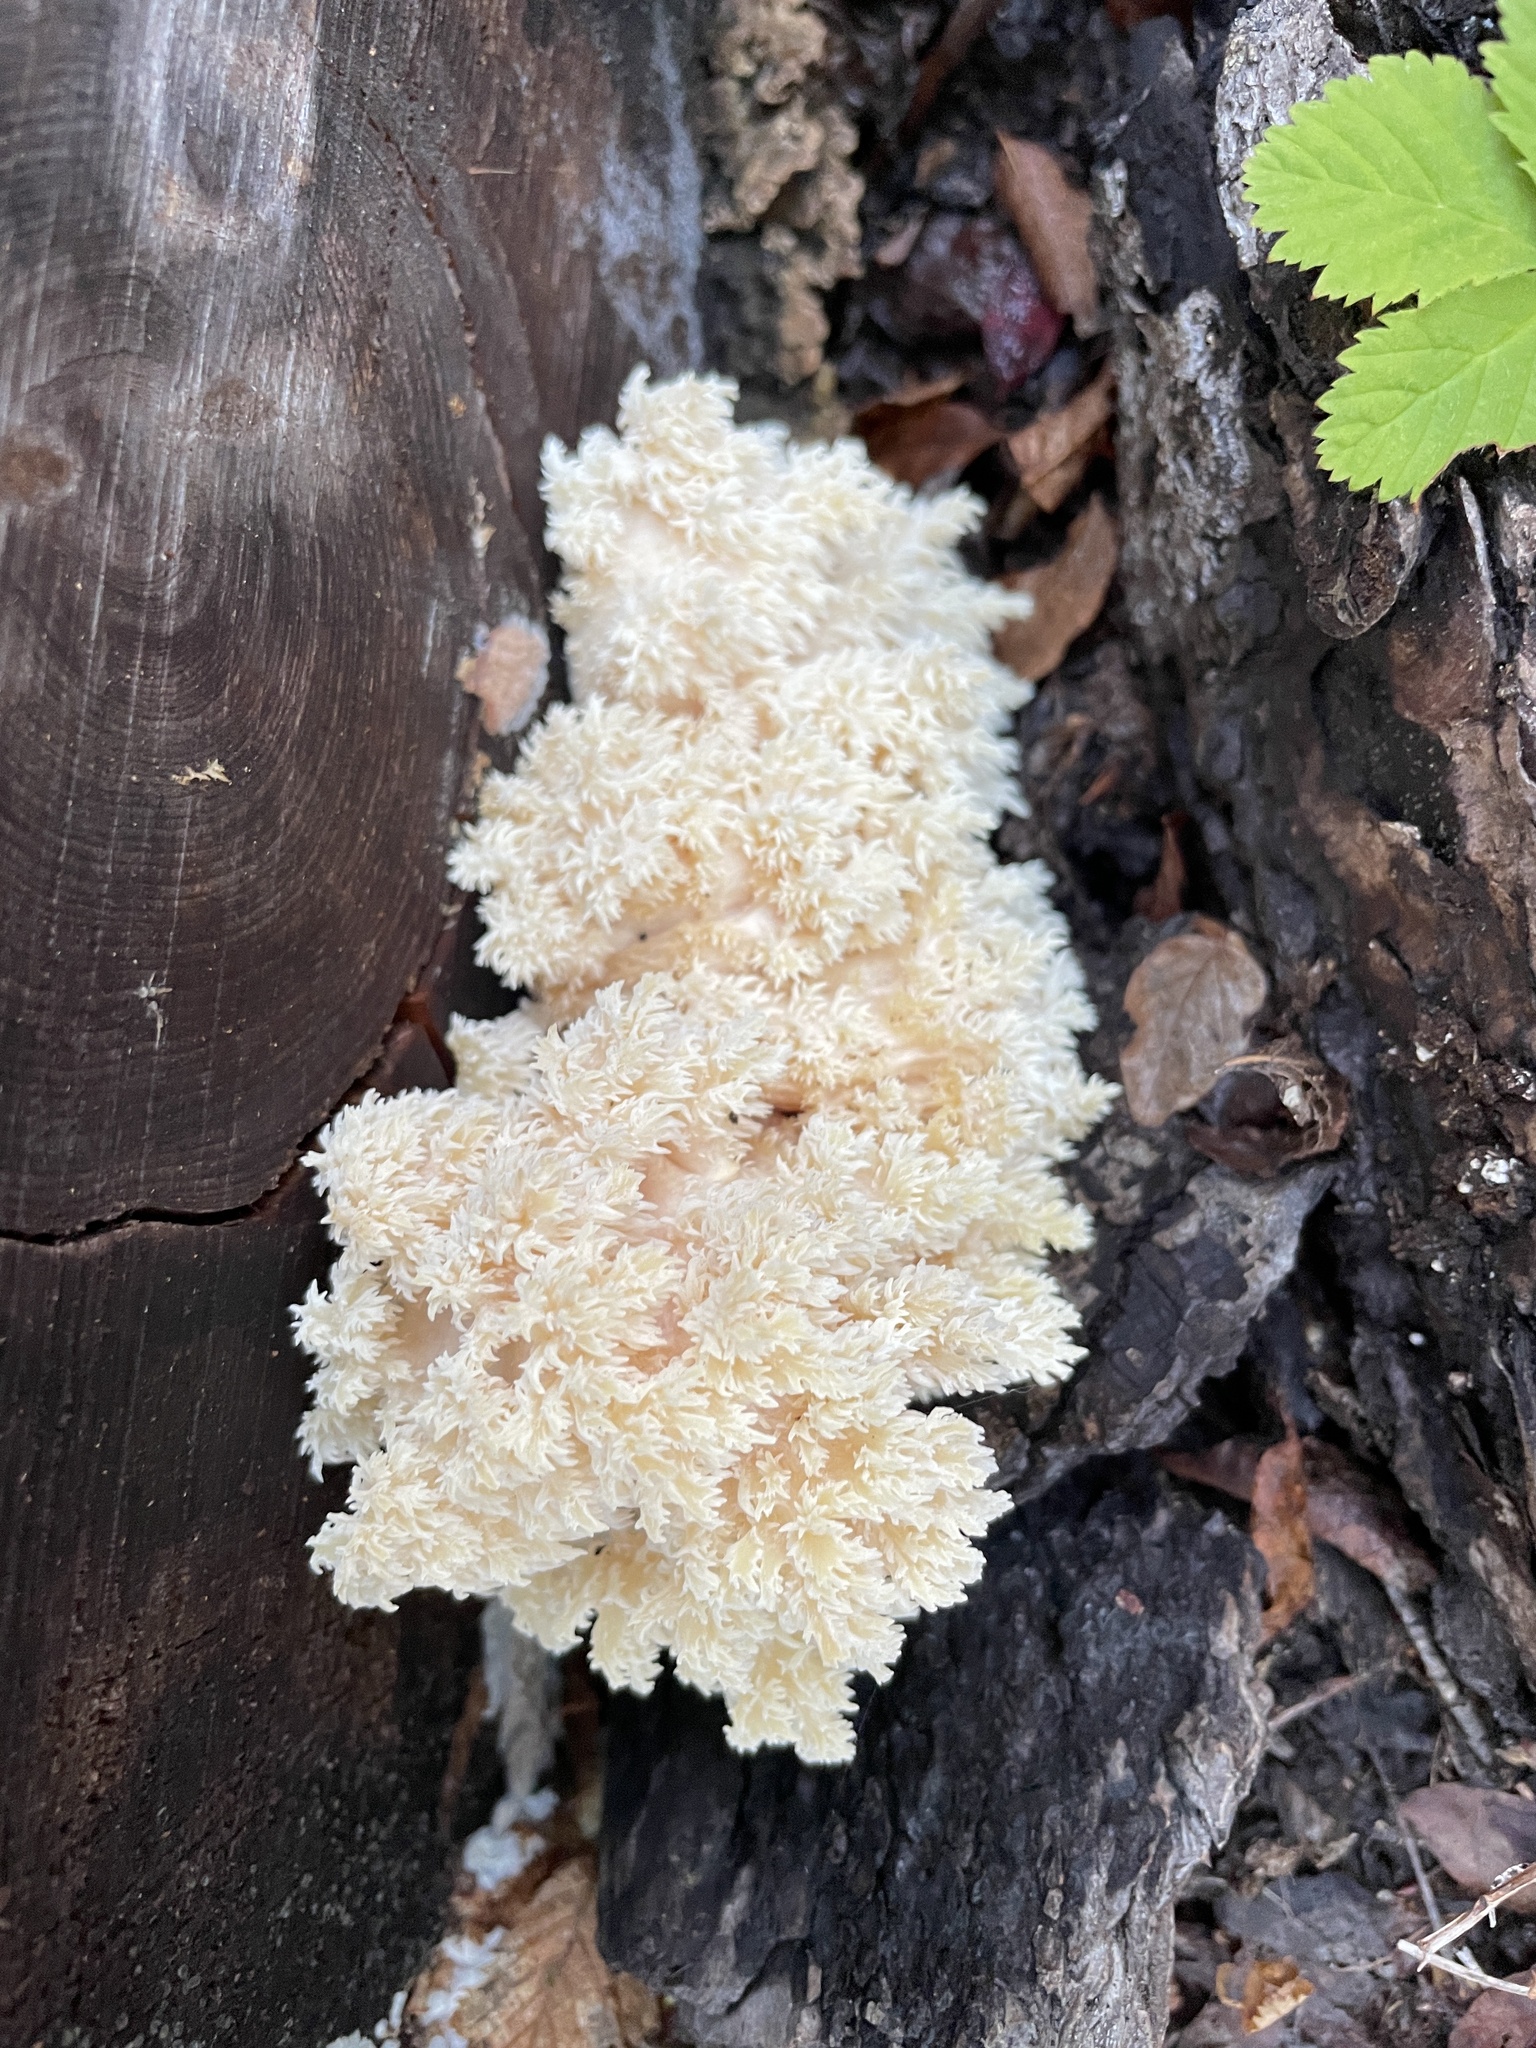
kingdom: Fungi
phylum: Basidiomycota
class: Agaricomycetes
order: Russulales
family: Hericiaceae
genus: Hericium
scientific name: Hericium abietis
